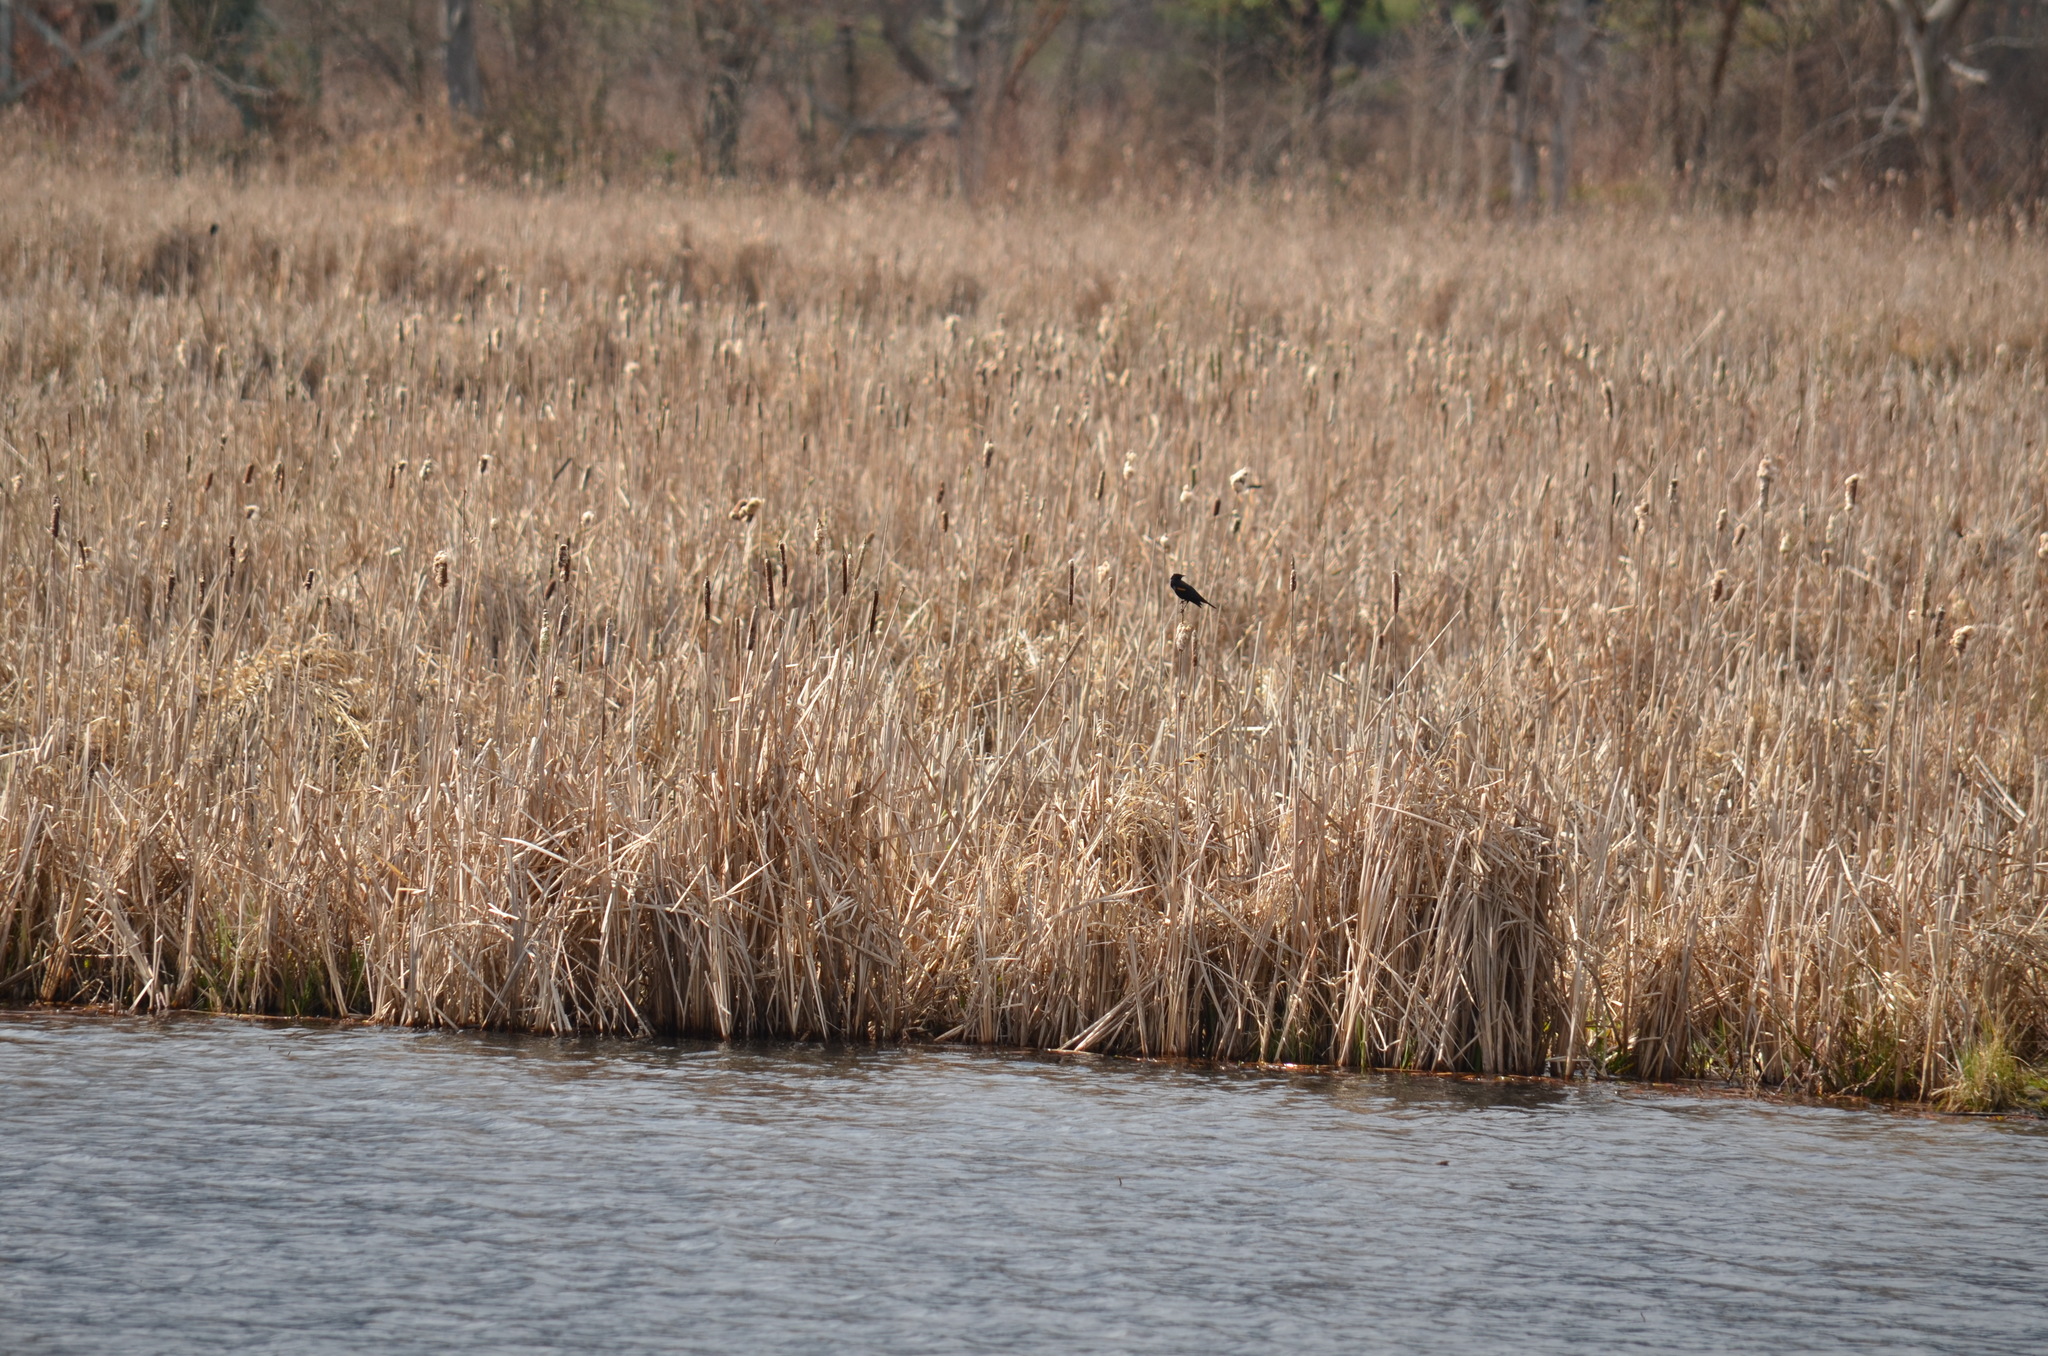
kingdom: Animalia
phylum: Chordata
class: Aves
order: Passeriformes
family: Icteridae
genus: Agelaius
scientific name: Agelaius phoeniceus
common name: Red-winged blackbird
